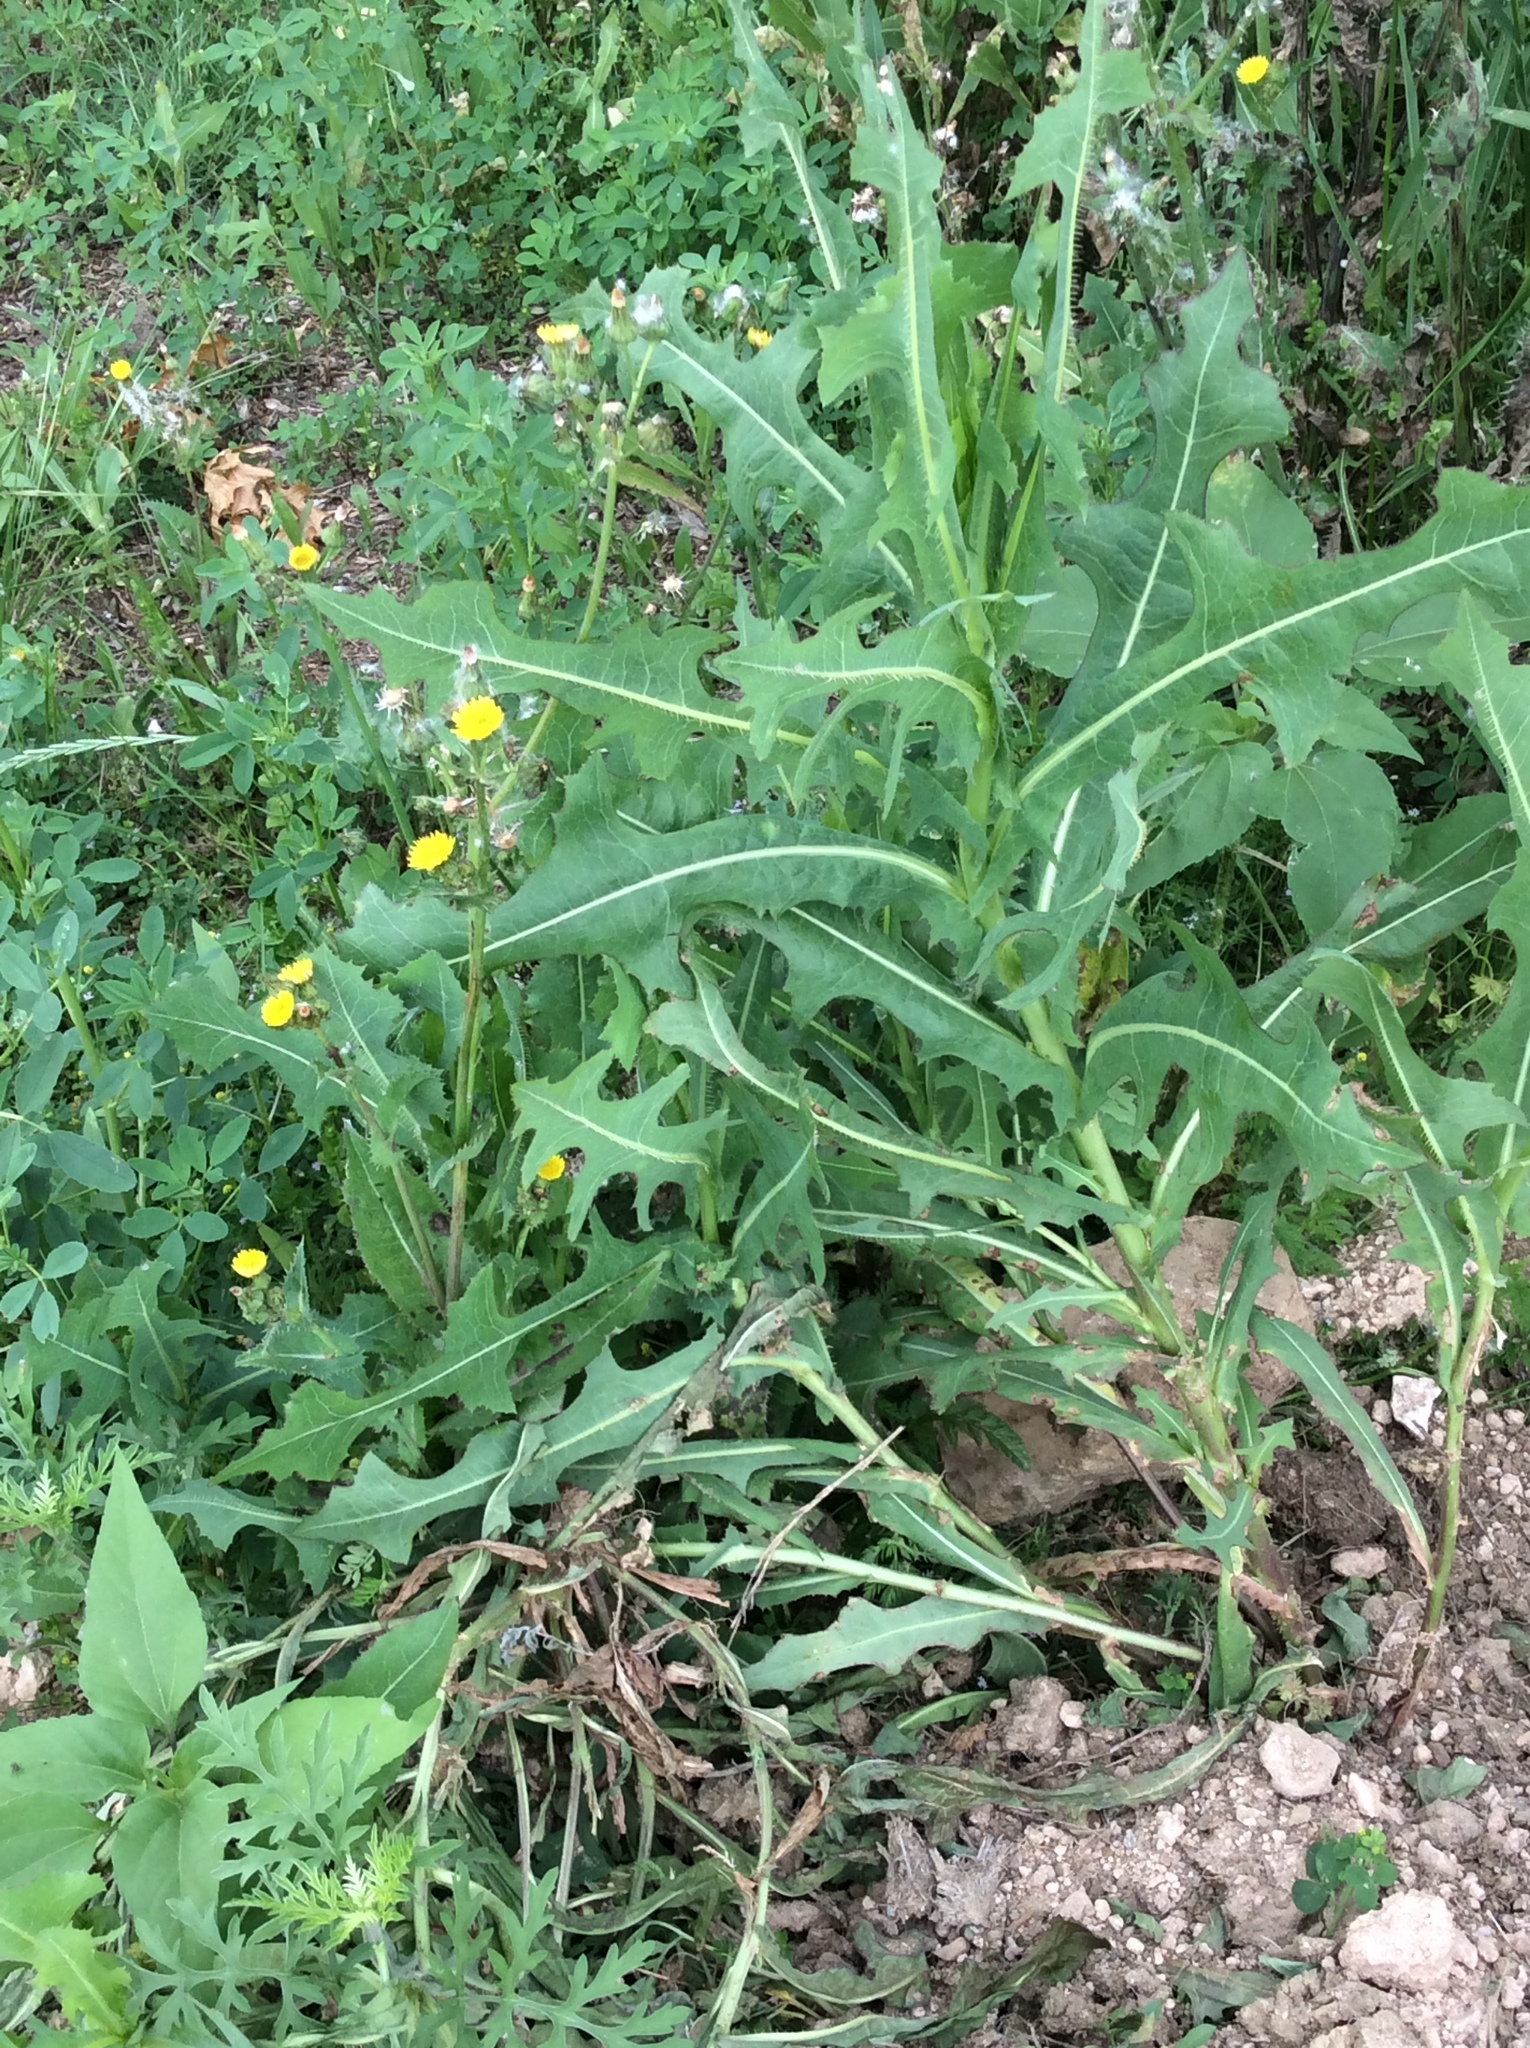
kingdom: Plantae
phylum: Tracheophyta
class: Magnoliopsida
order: Asterales
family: Asteraceae
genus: Lactuca
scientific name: Lactuca serriola
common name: Prickly lettuce
